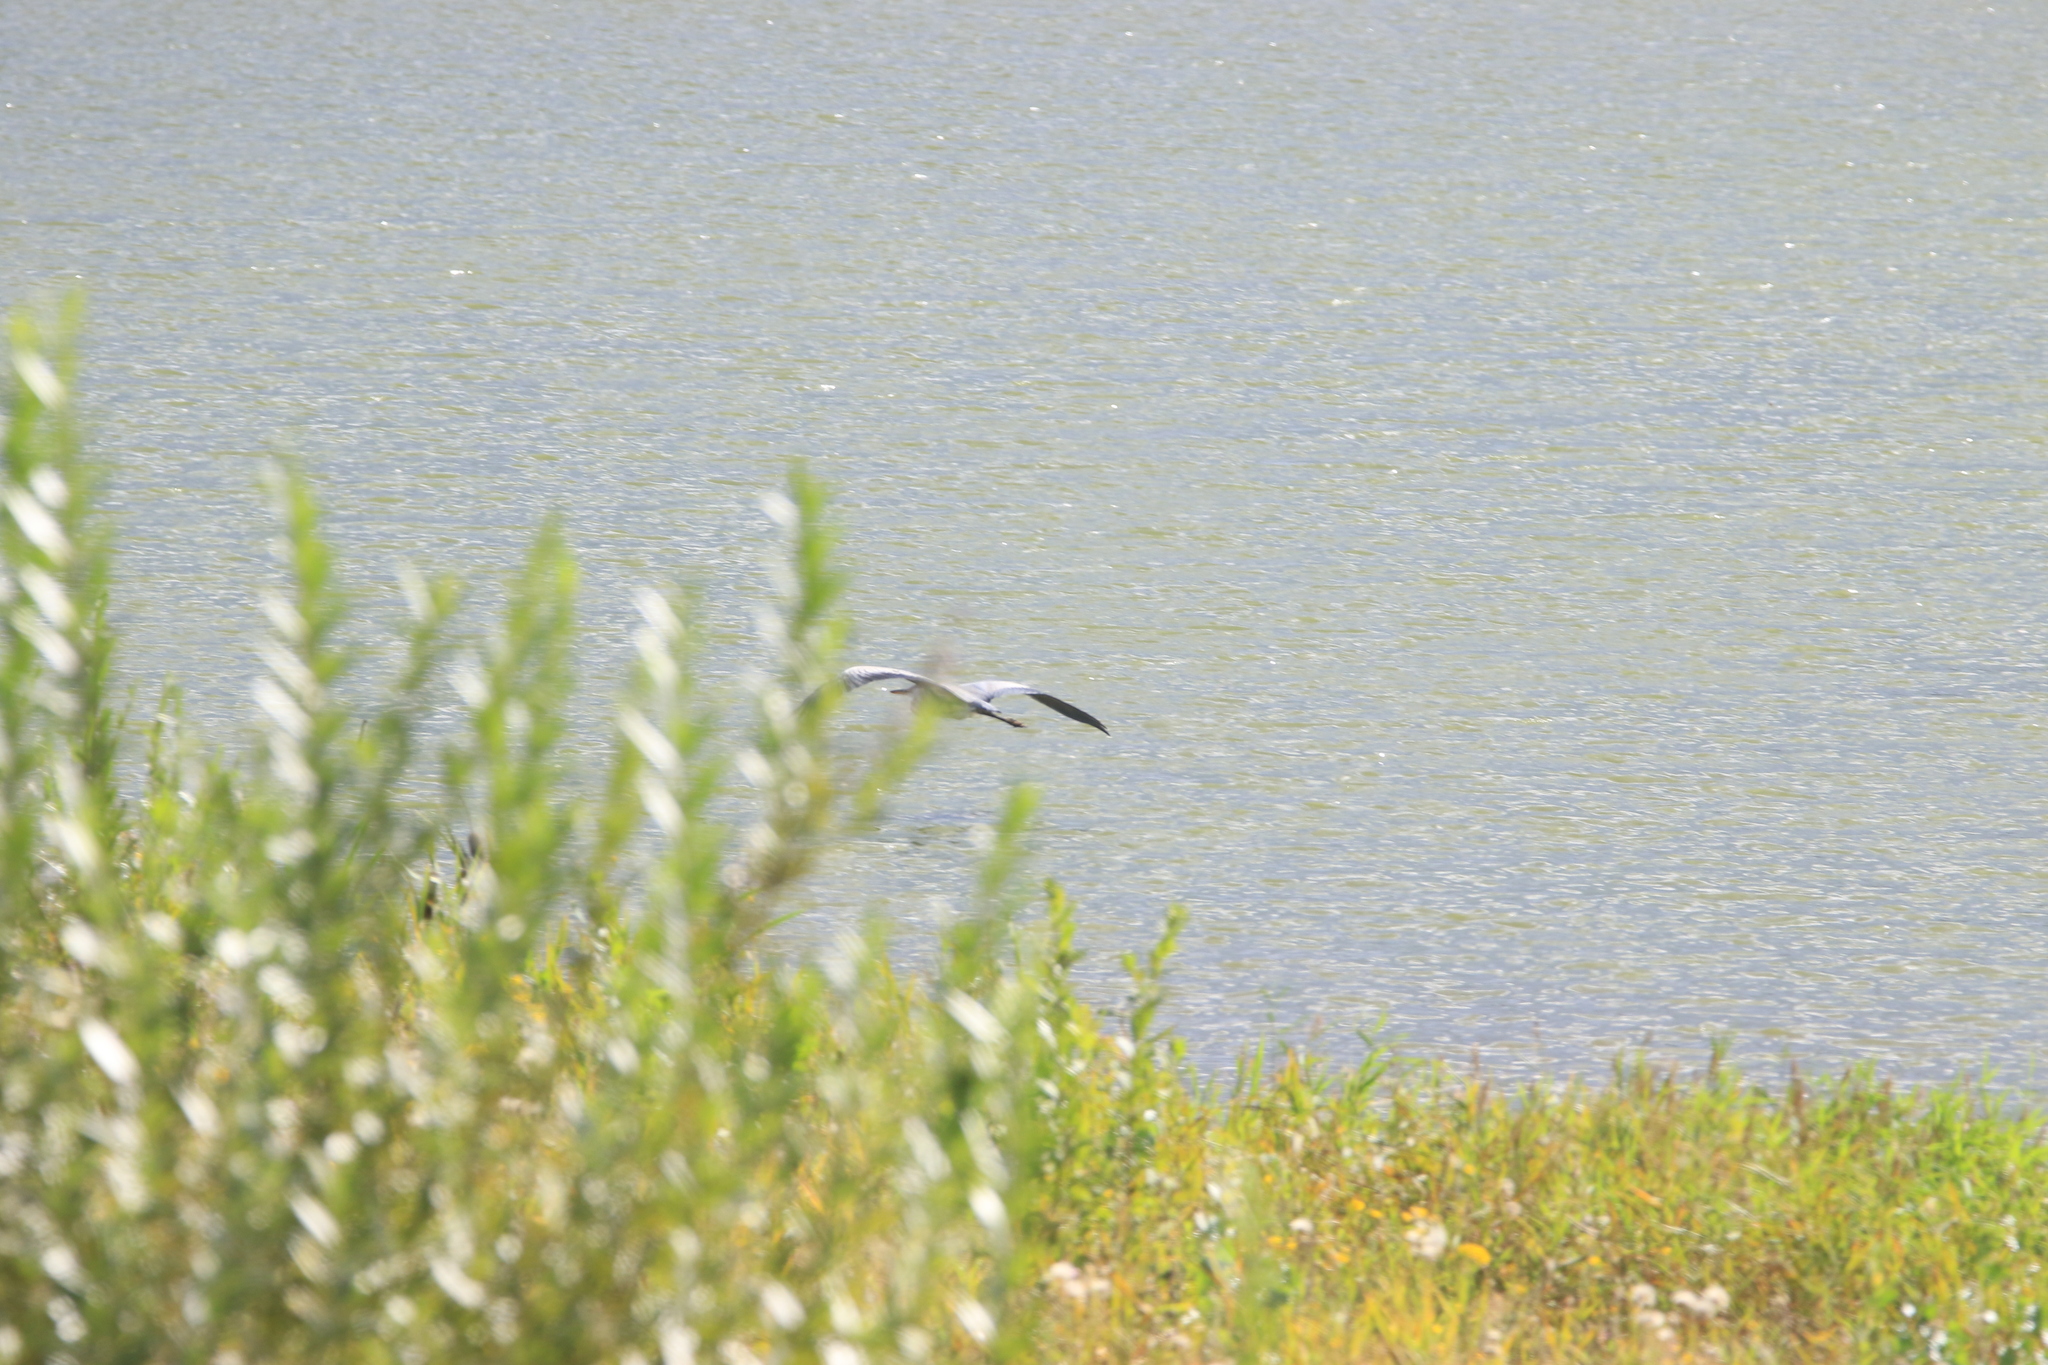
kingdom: Animalia
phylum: Chordata
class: Aves
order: Pelecaniformes
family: Ardeidae
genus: Ardea
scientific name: Ardea cinerea
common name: Grey heron
